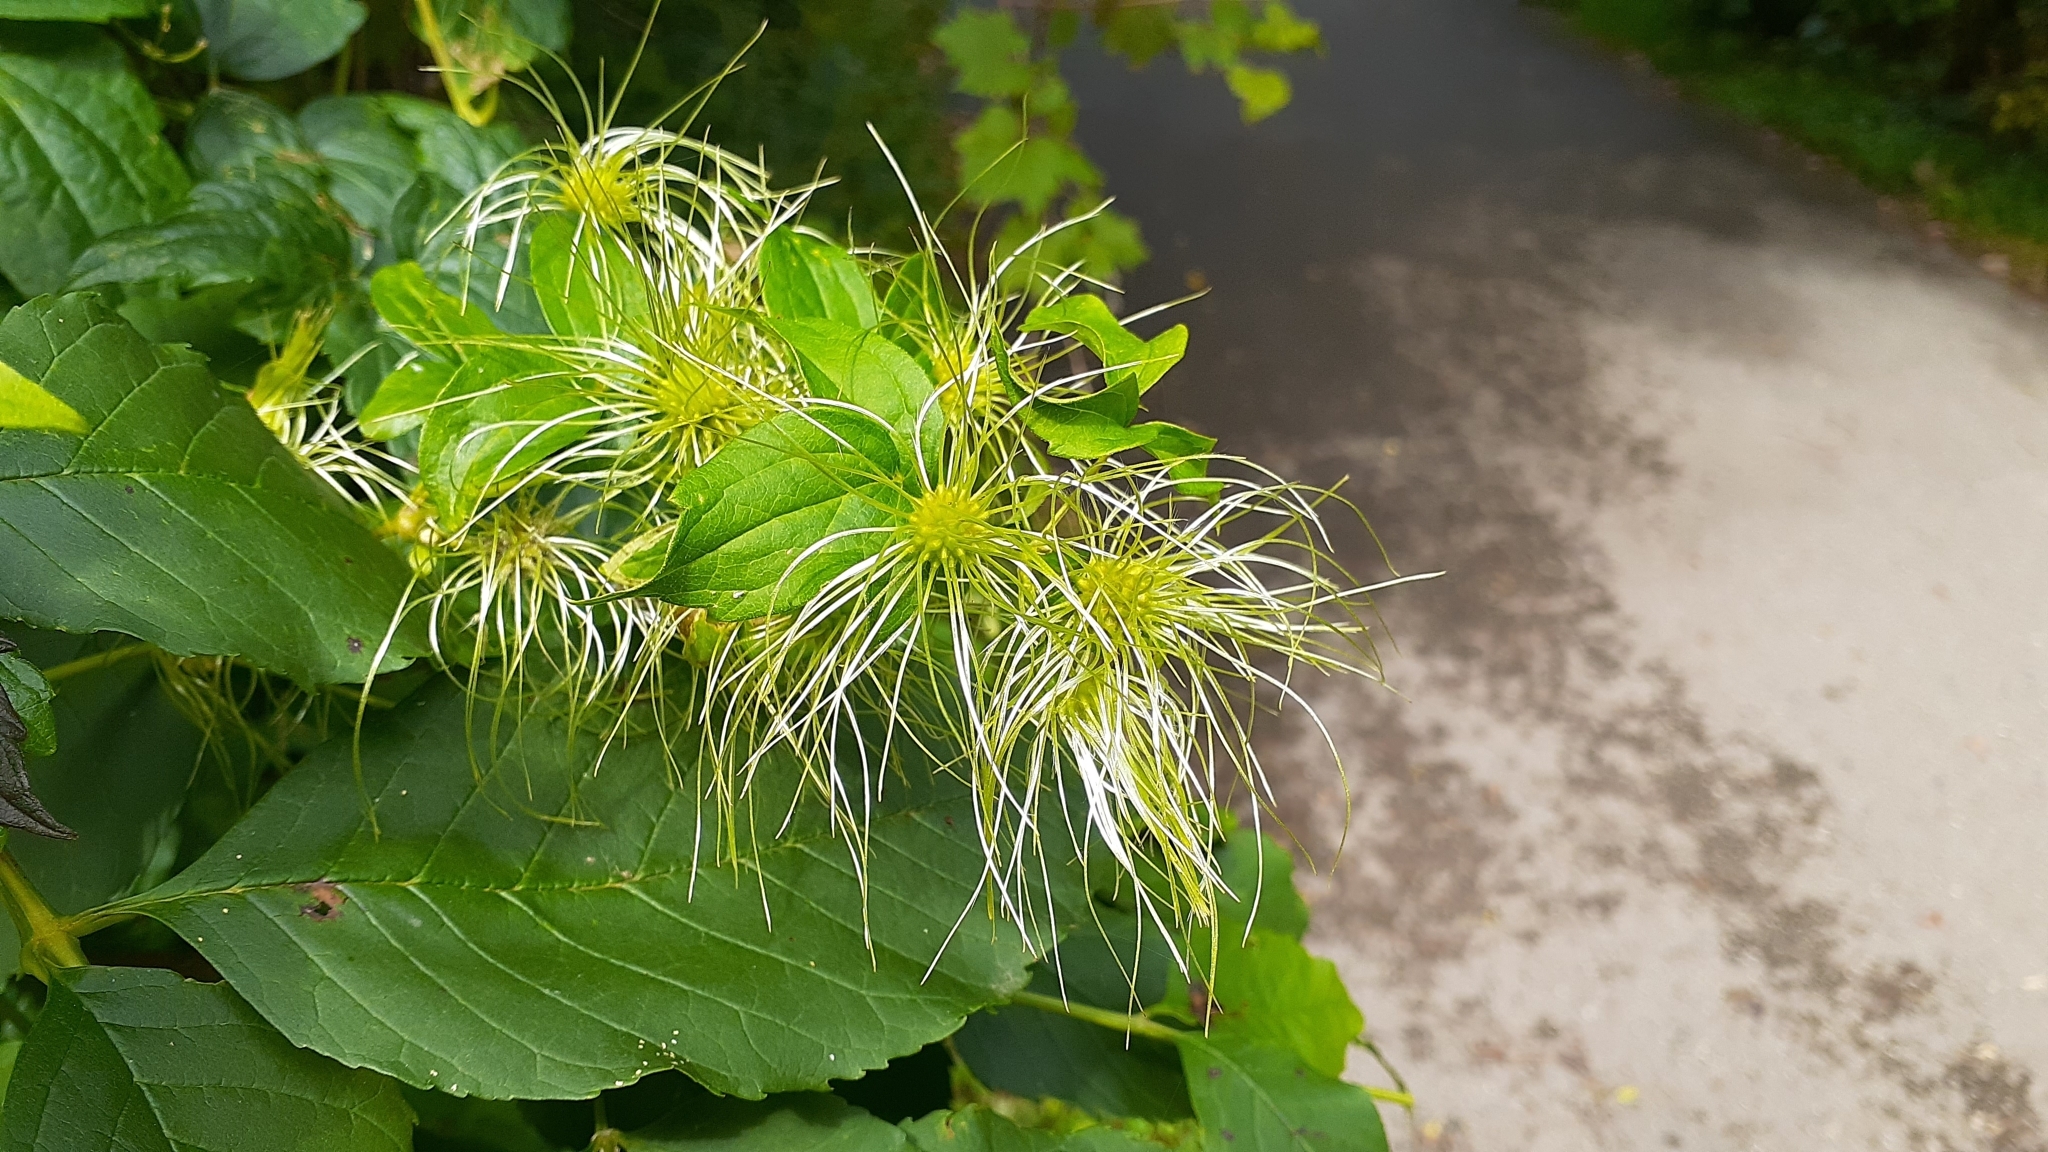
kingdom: Plantae
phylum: Tracheophyta
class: Magnoliopsida
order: Ranunculales
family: Ranunculaceae
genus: Clematis
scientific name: Clematis virginiana
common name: Virgin's-bower
